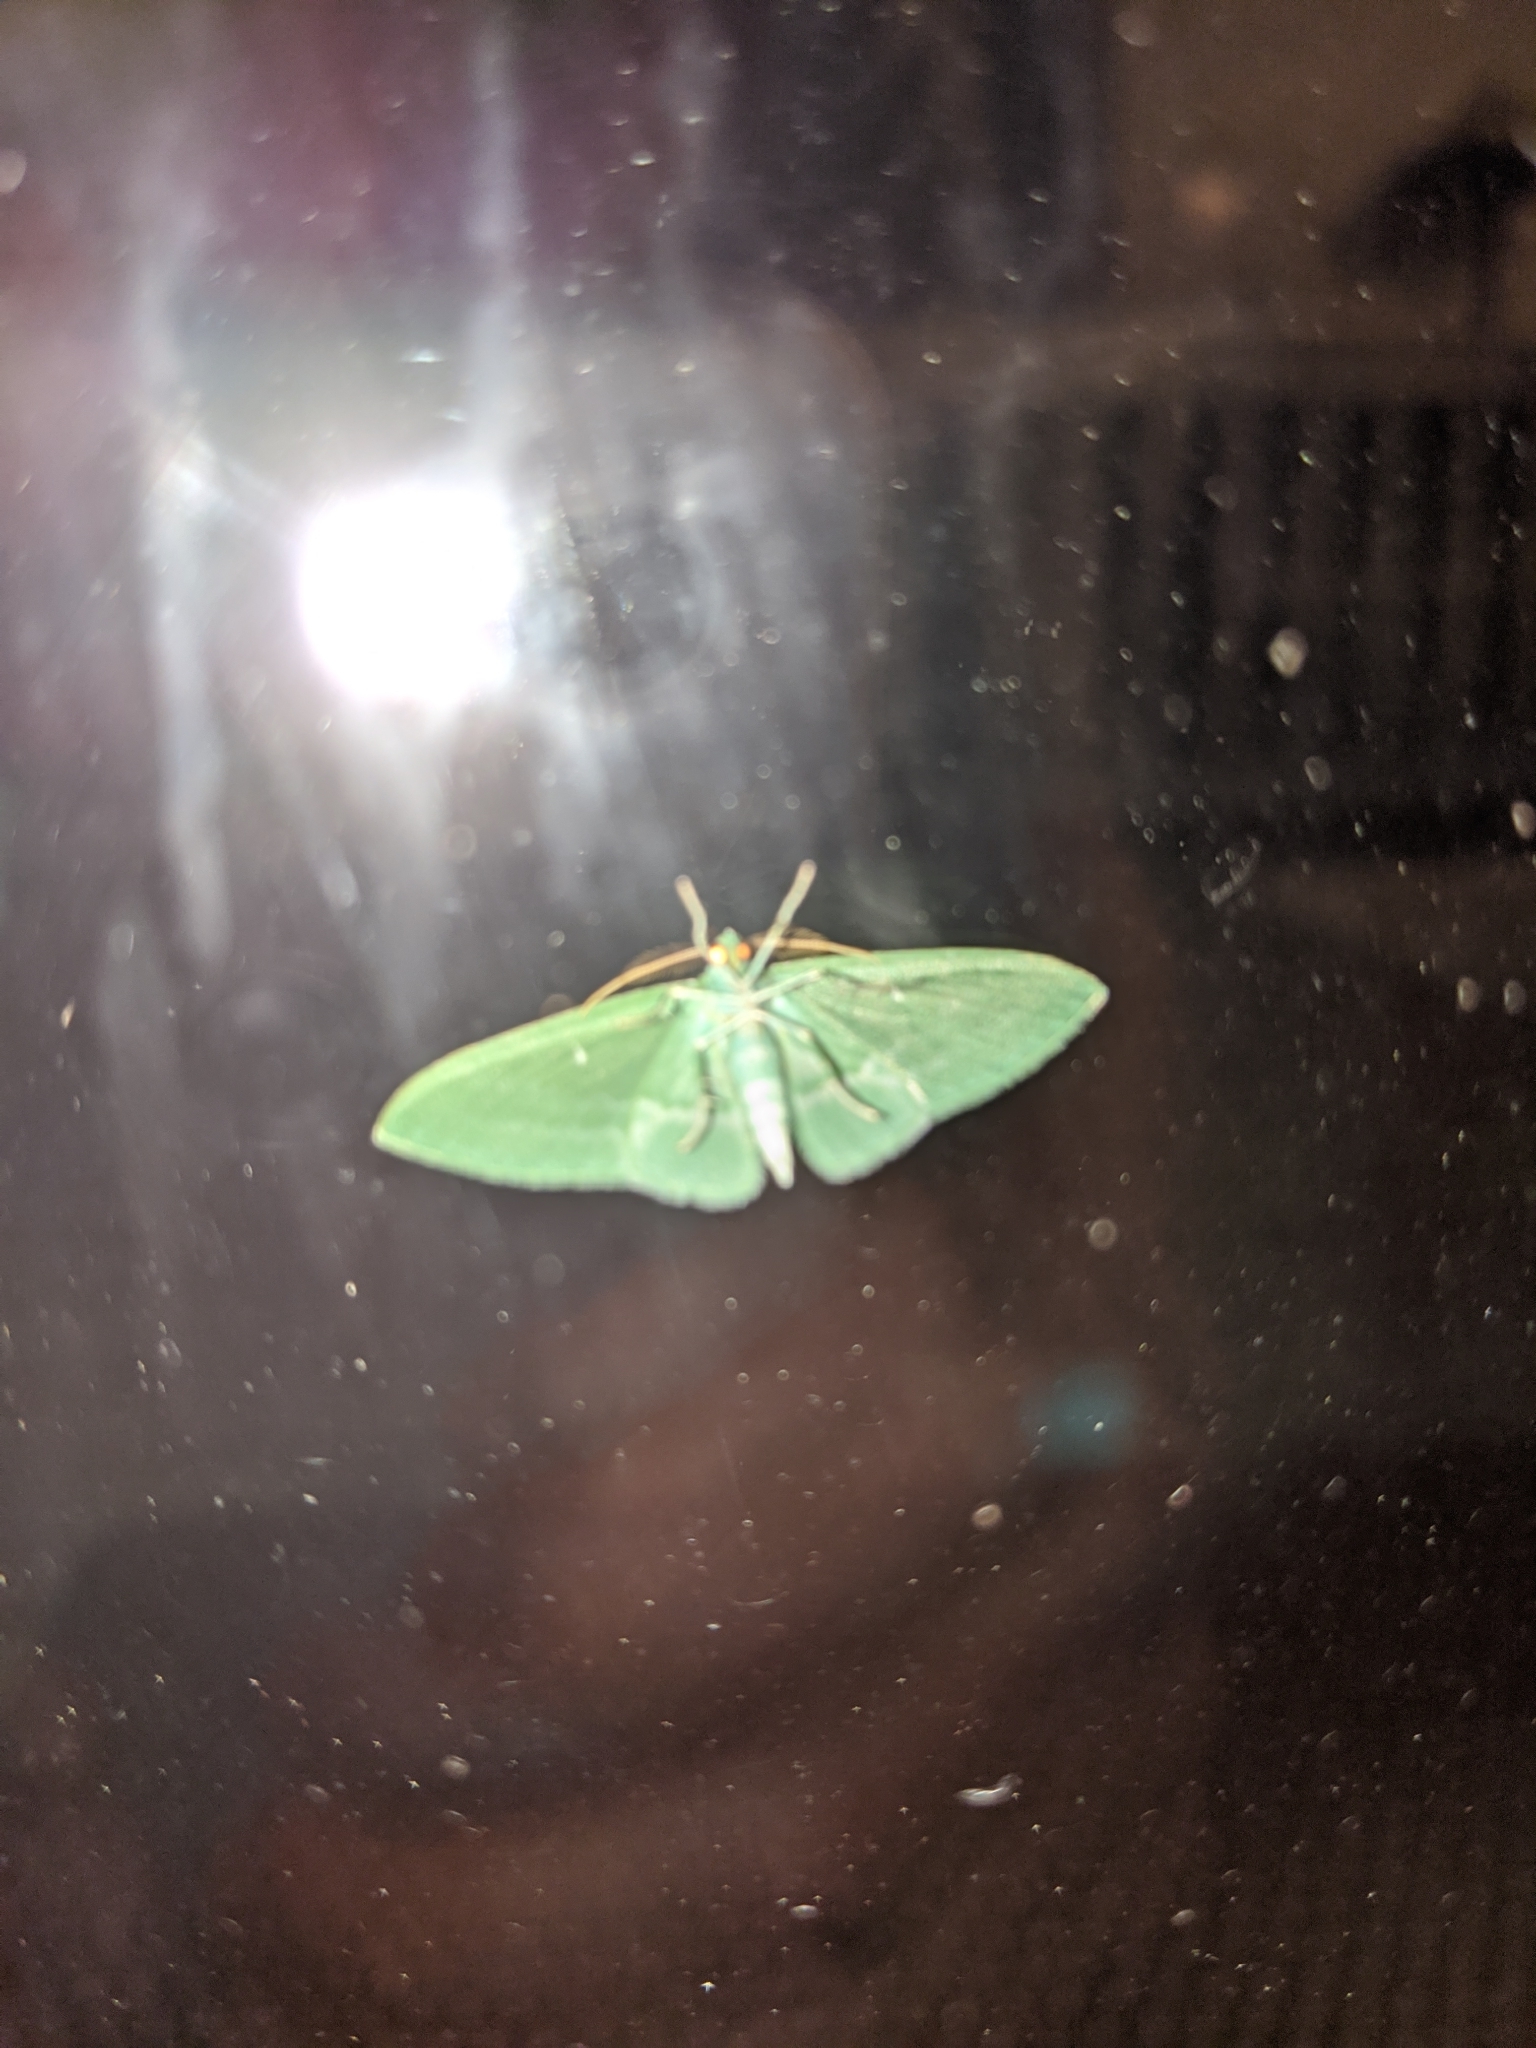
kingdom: Animalia
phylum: Arthropoda
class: Insecta
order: Lepidoptera
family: Geometridae
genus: Dyspteris
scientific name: Dyspteris abortivaria
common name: Bad-wing
